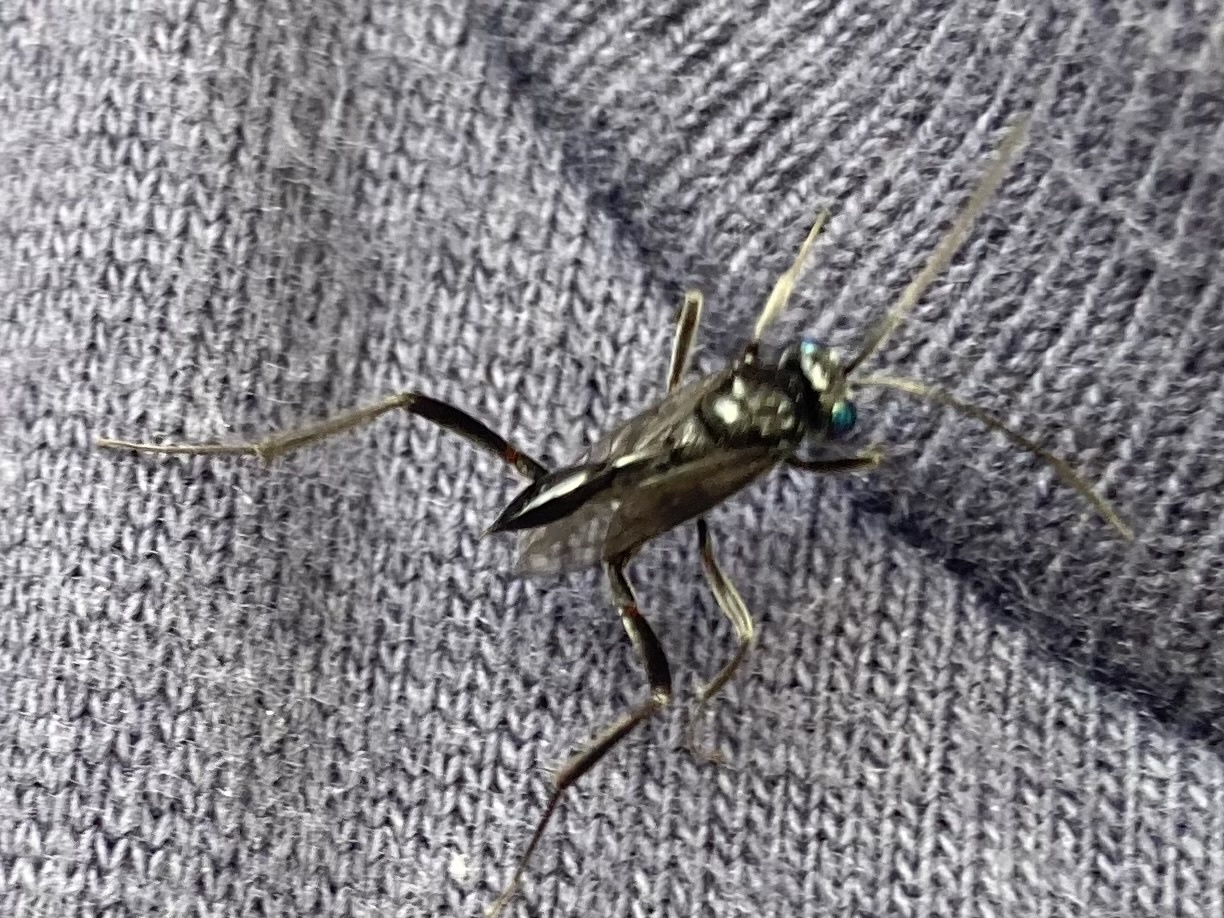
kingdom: Animalia
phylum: Arthropoda
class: Insecta
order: Hymenoptera
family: Evaniidae
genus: Evania
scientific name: Evania appendigaster
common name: Ensign wasp
